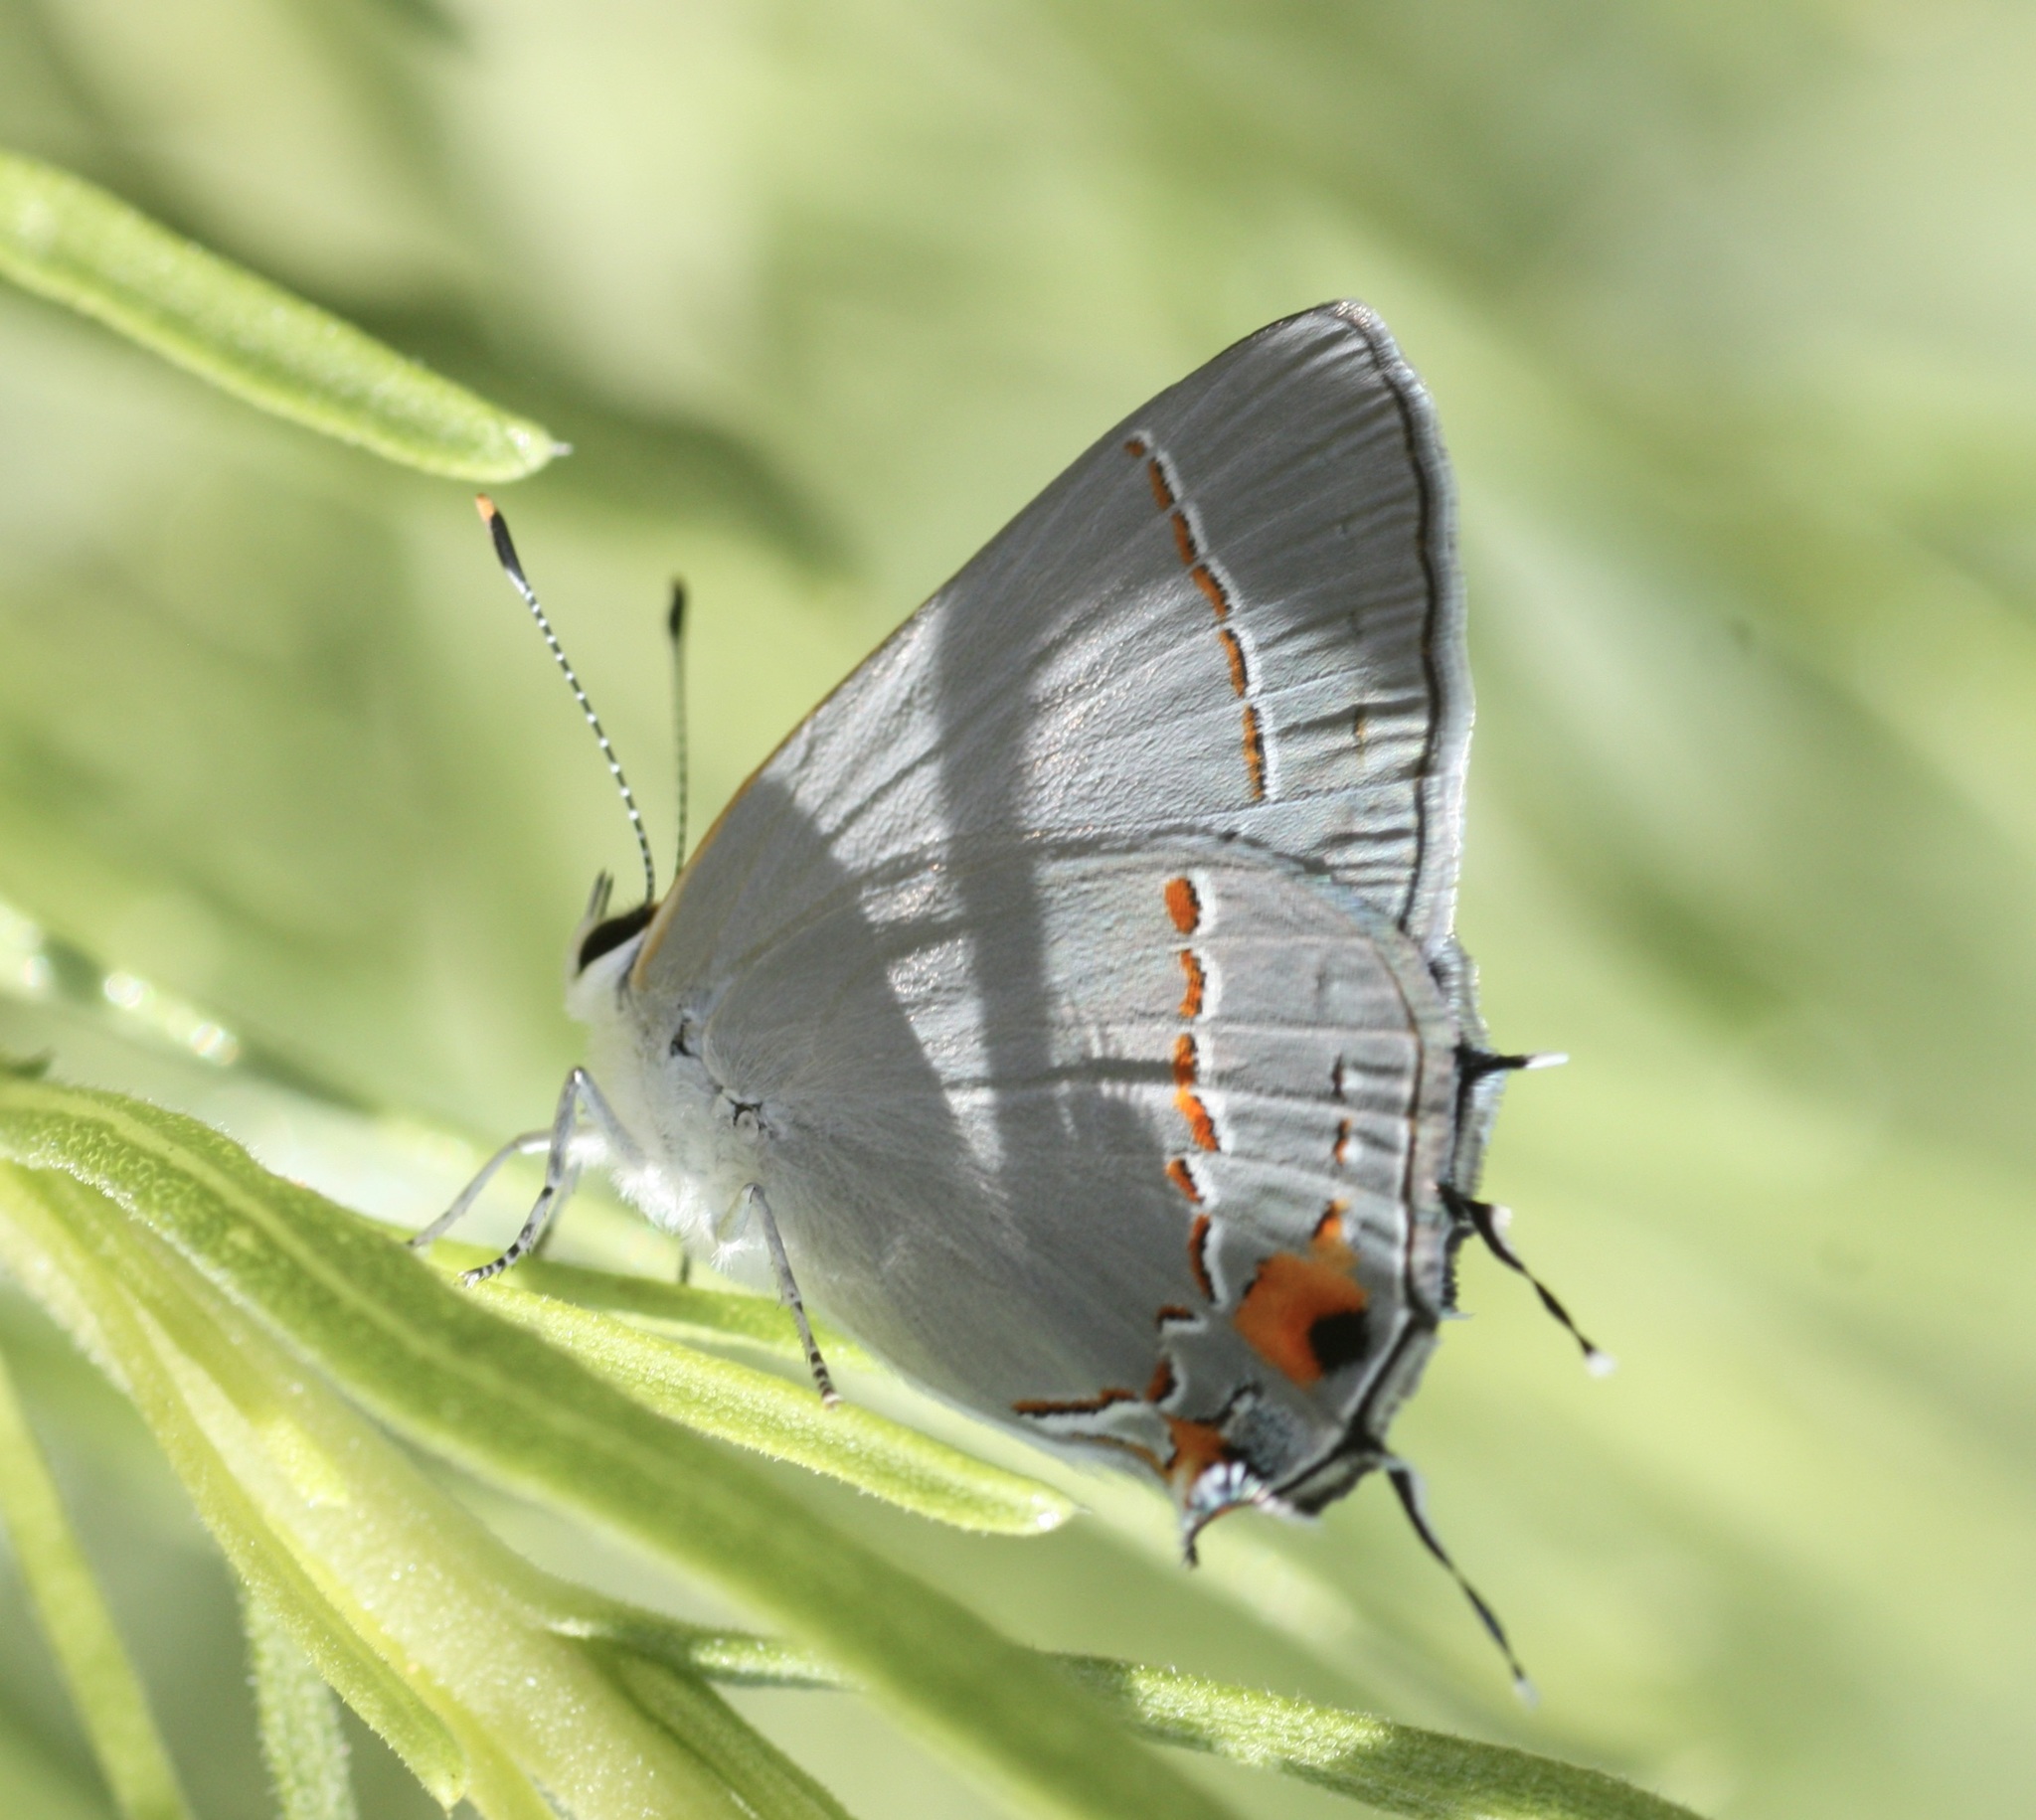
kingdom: Animalia
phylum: Arthropoda
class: Insecta
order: Lepidoptera
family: Lycaenidae
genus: Strymon
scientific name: Strymon melinus
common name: Gray hairstreak
